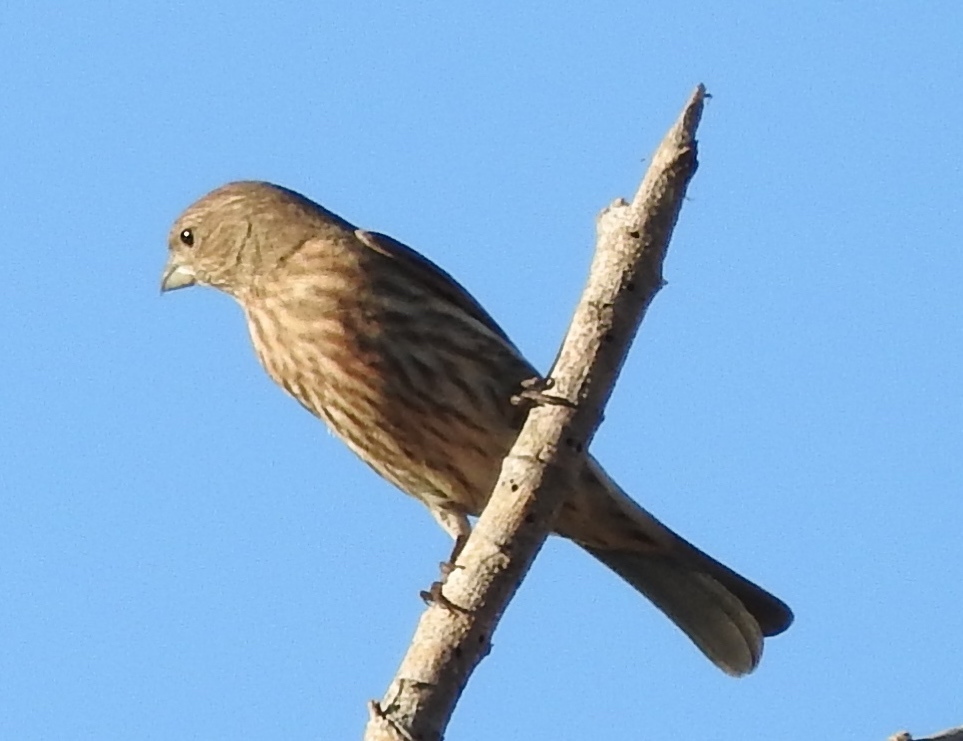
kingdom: Animalia
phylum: Chordata
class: Aves
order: Passeriformes
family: Fringillidae
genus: Haemorhous
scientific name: Haemorhous mexicanus
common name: House finch
